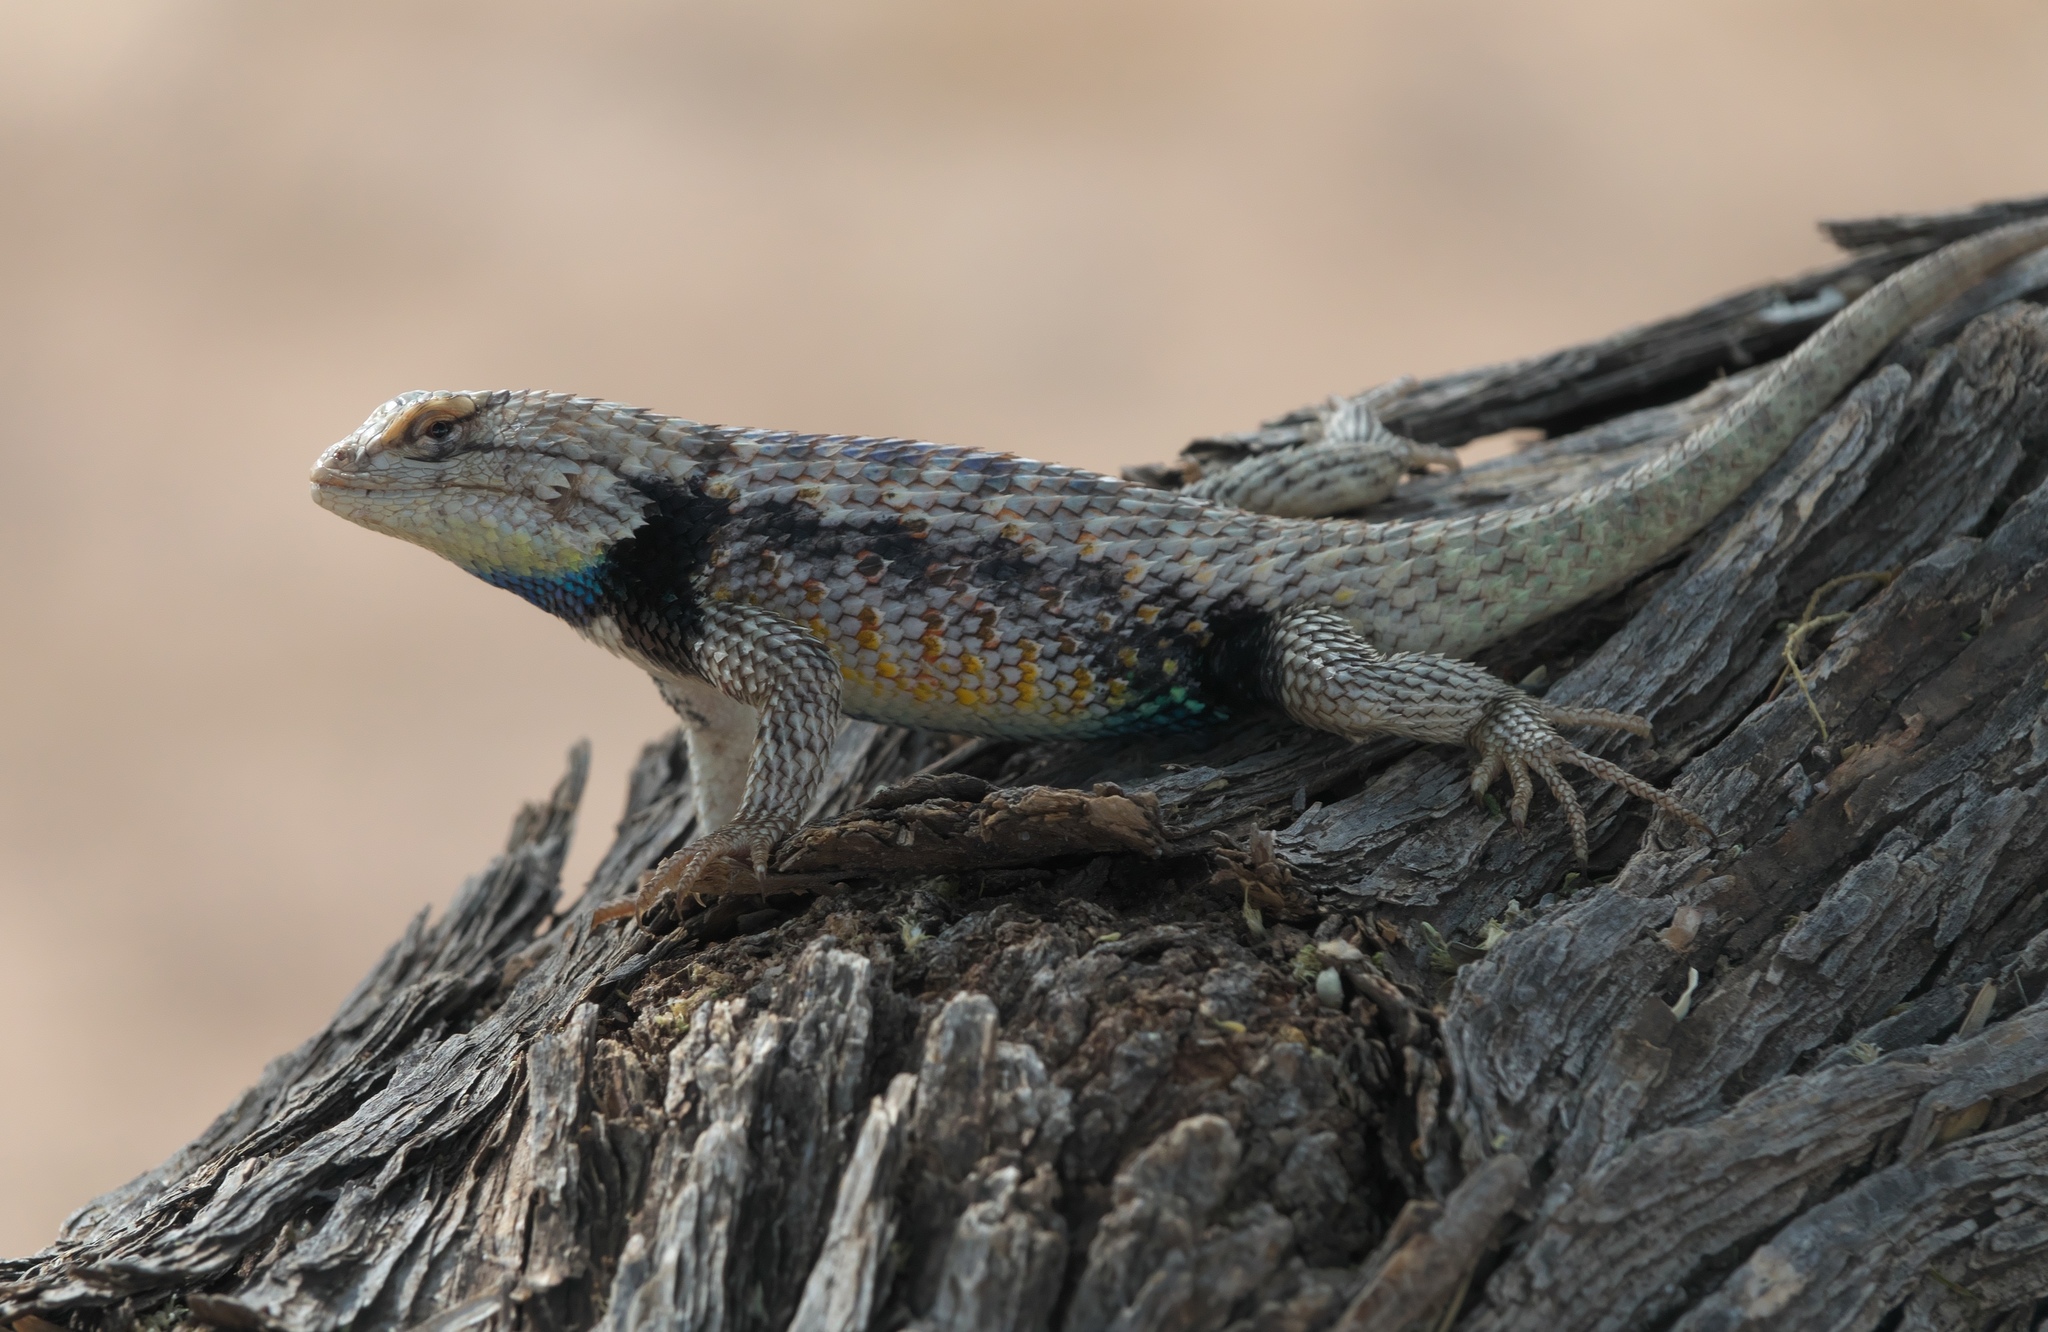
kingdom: Animalia
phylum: Chordata
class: Squamata
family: Phrynosomatidae
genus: Sceloporus
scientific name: Sceloporus bimaculosus
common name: Twin-spotted spiny lizard
